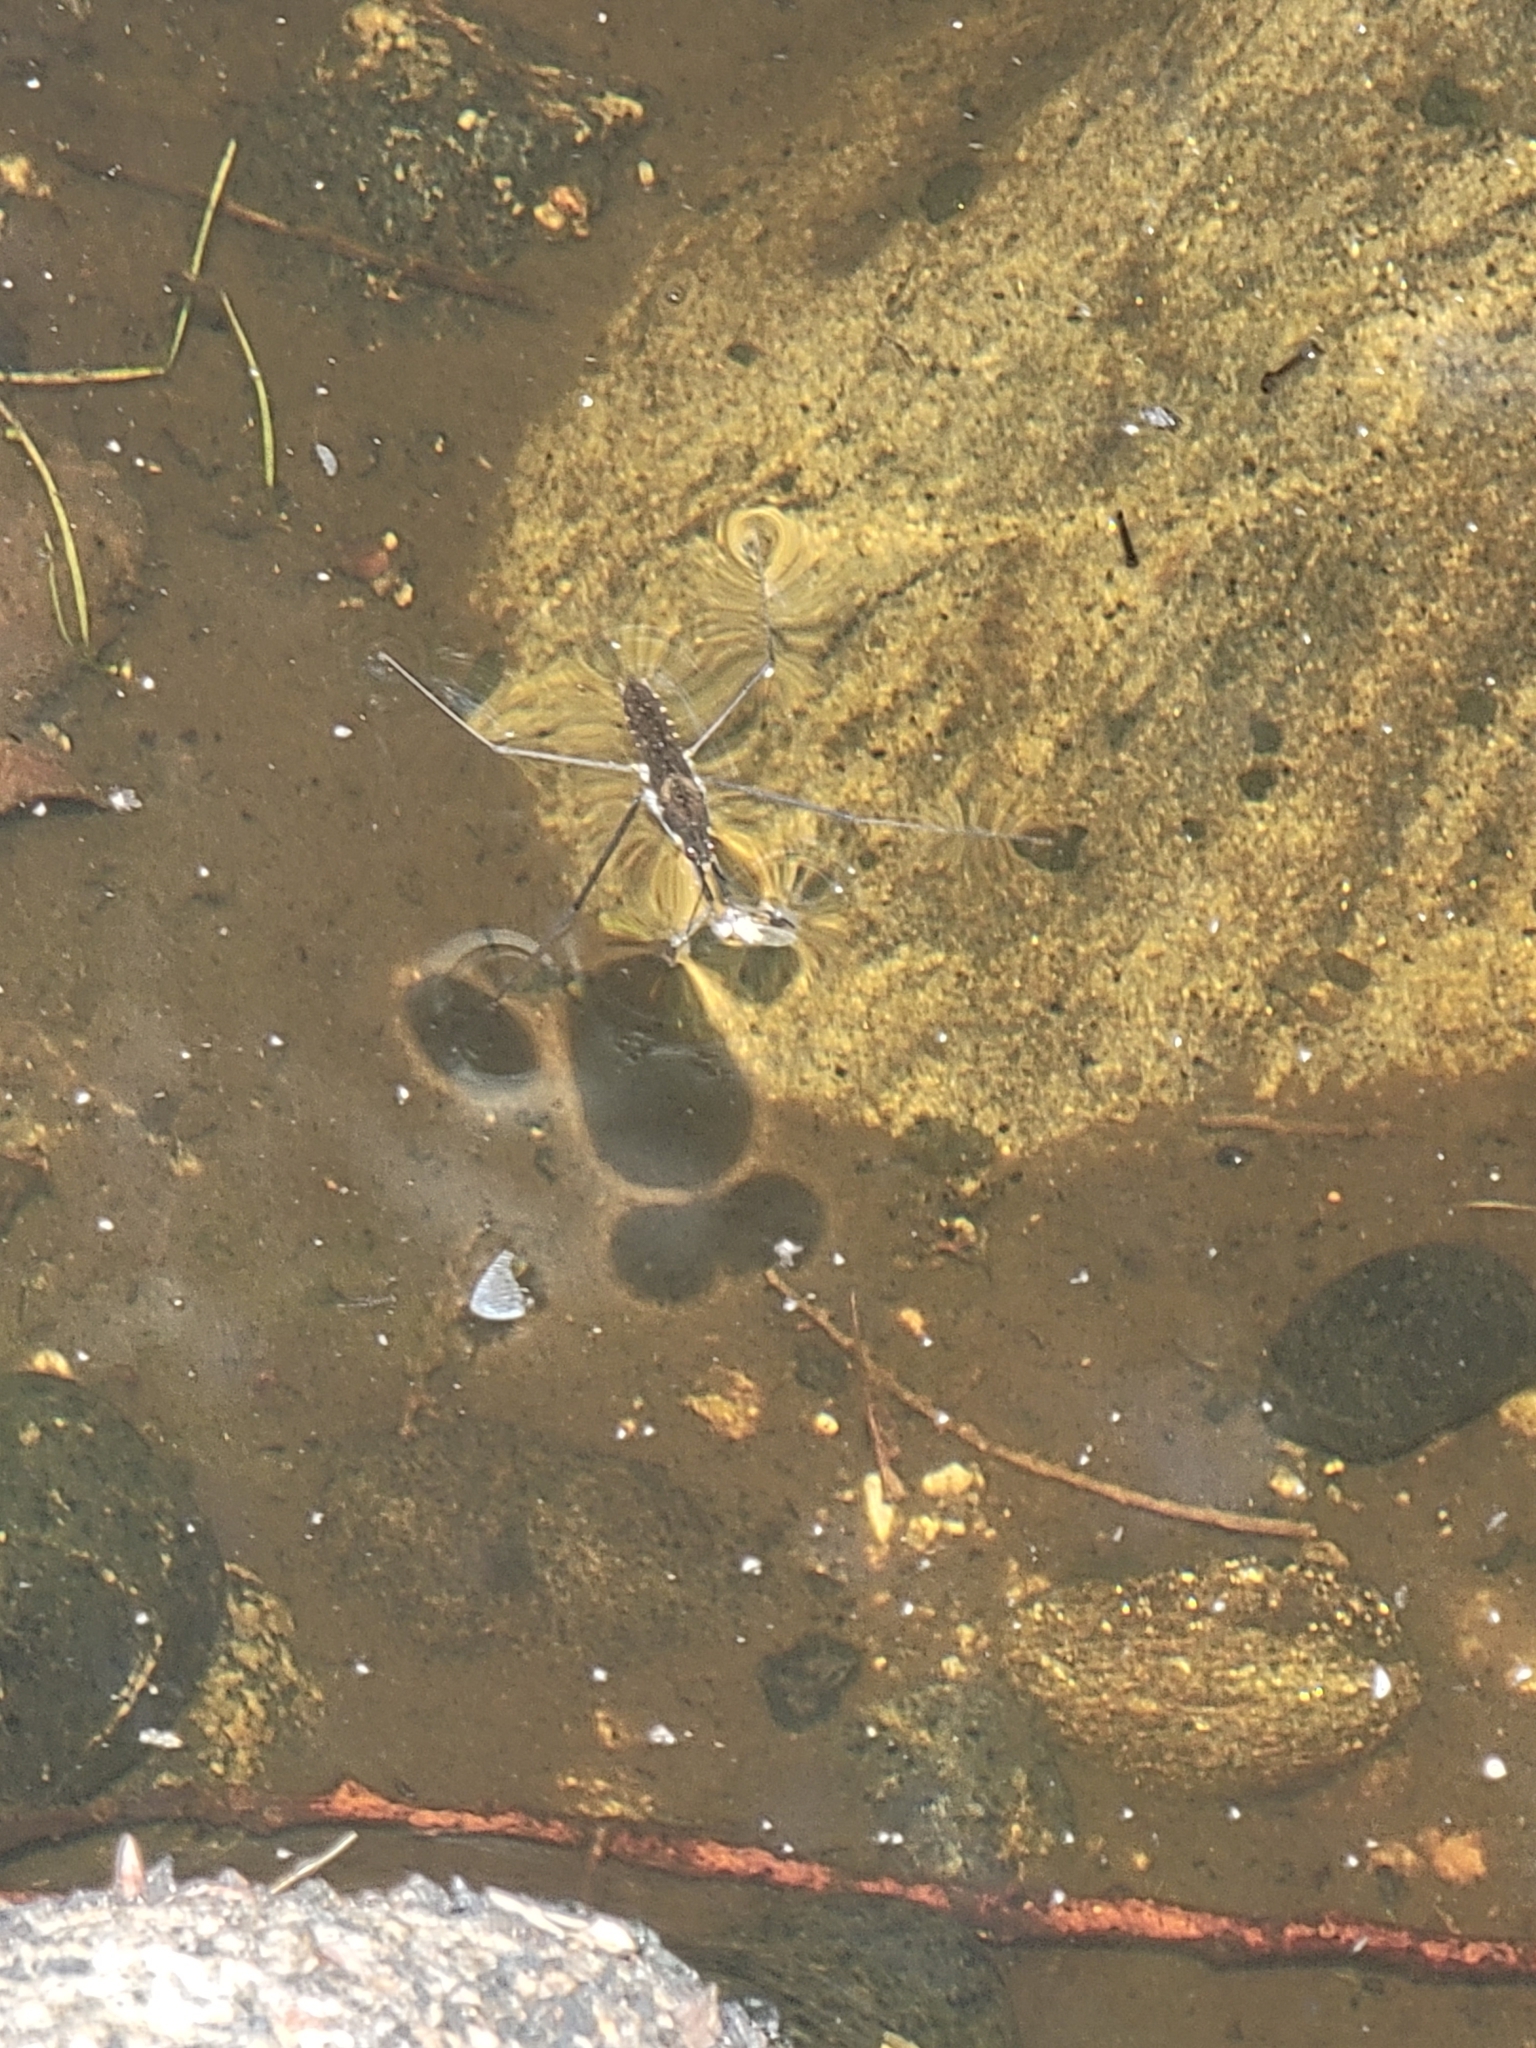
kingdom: Animalia
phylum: Arthropoda
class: Insecta
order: Hemiptera
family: Gerridae
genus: Aquarius
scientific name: Aquarius remigis
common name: Common water strider
